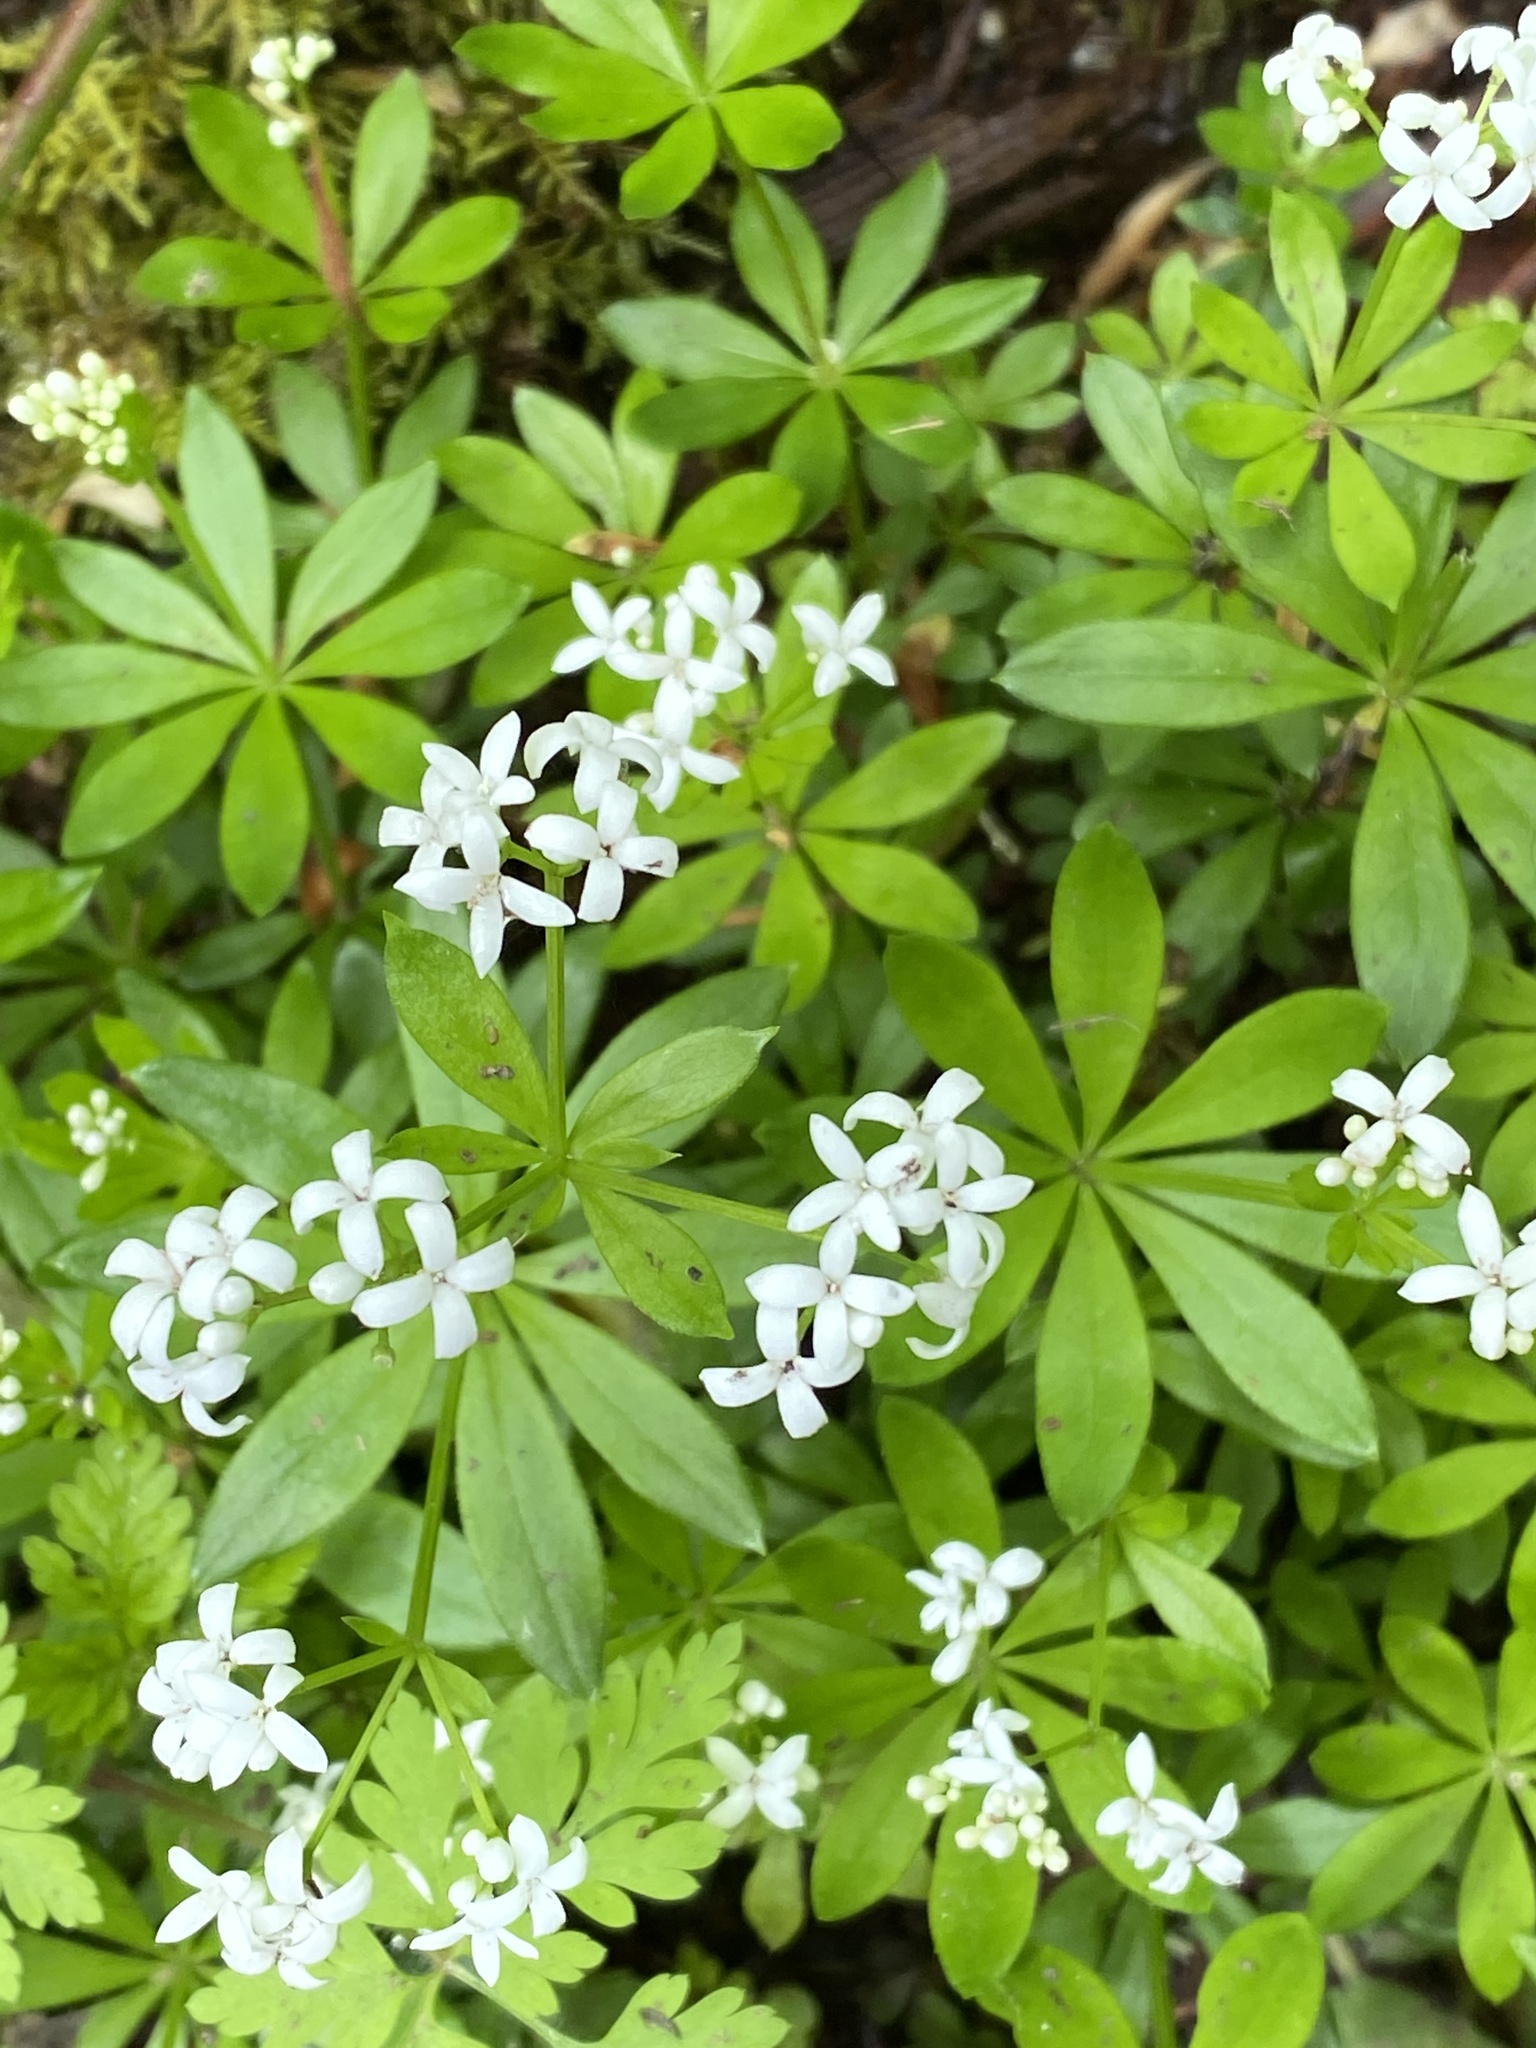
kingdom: Plantae
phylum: Tracheophyta
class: Magnoliopsida
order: Gentianales
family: Rubiaceae
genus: Galium
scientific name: Galium odoratum
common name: Sweet woodruff
